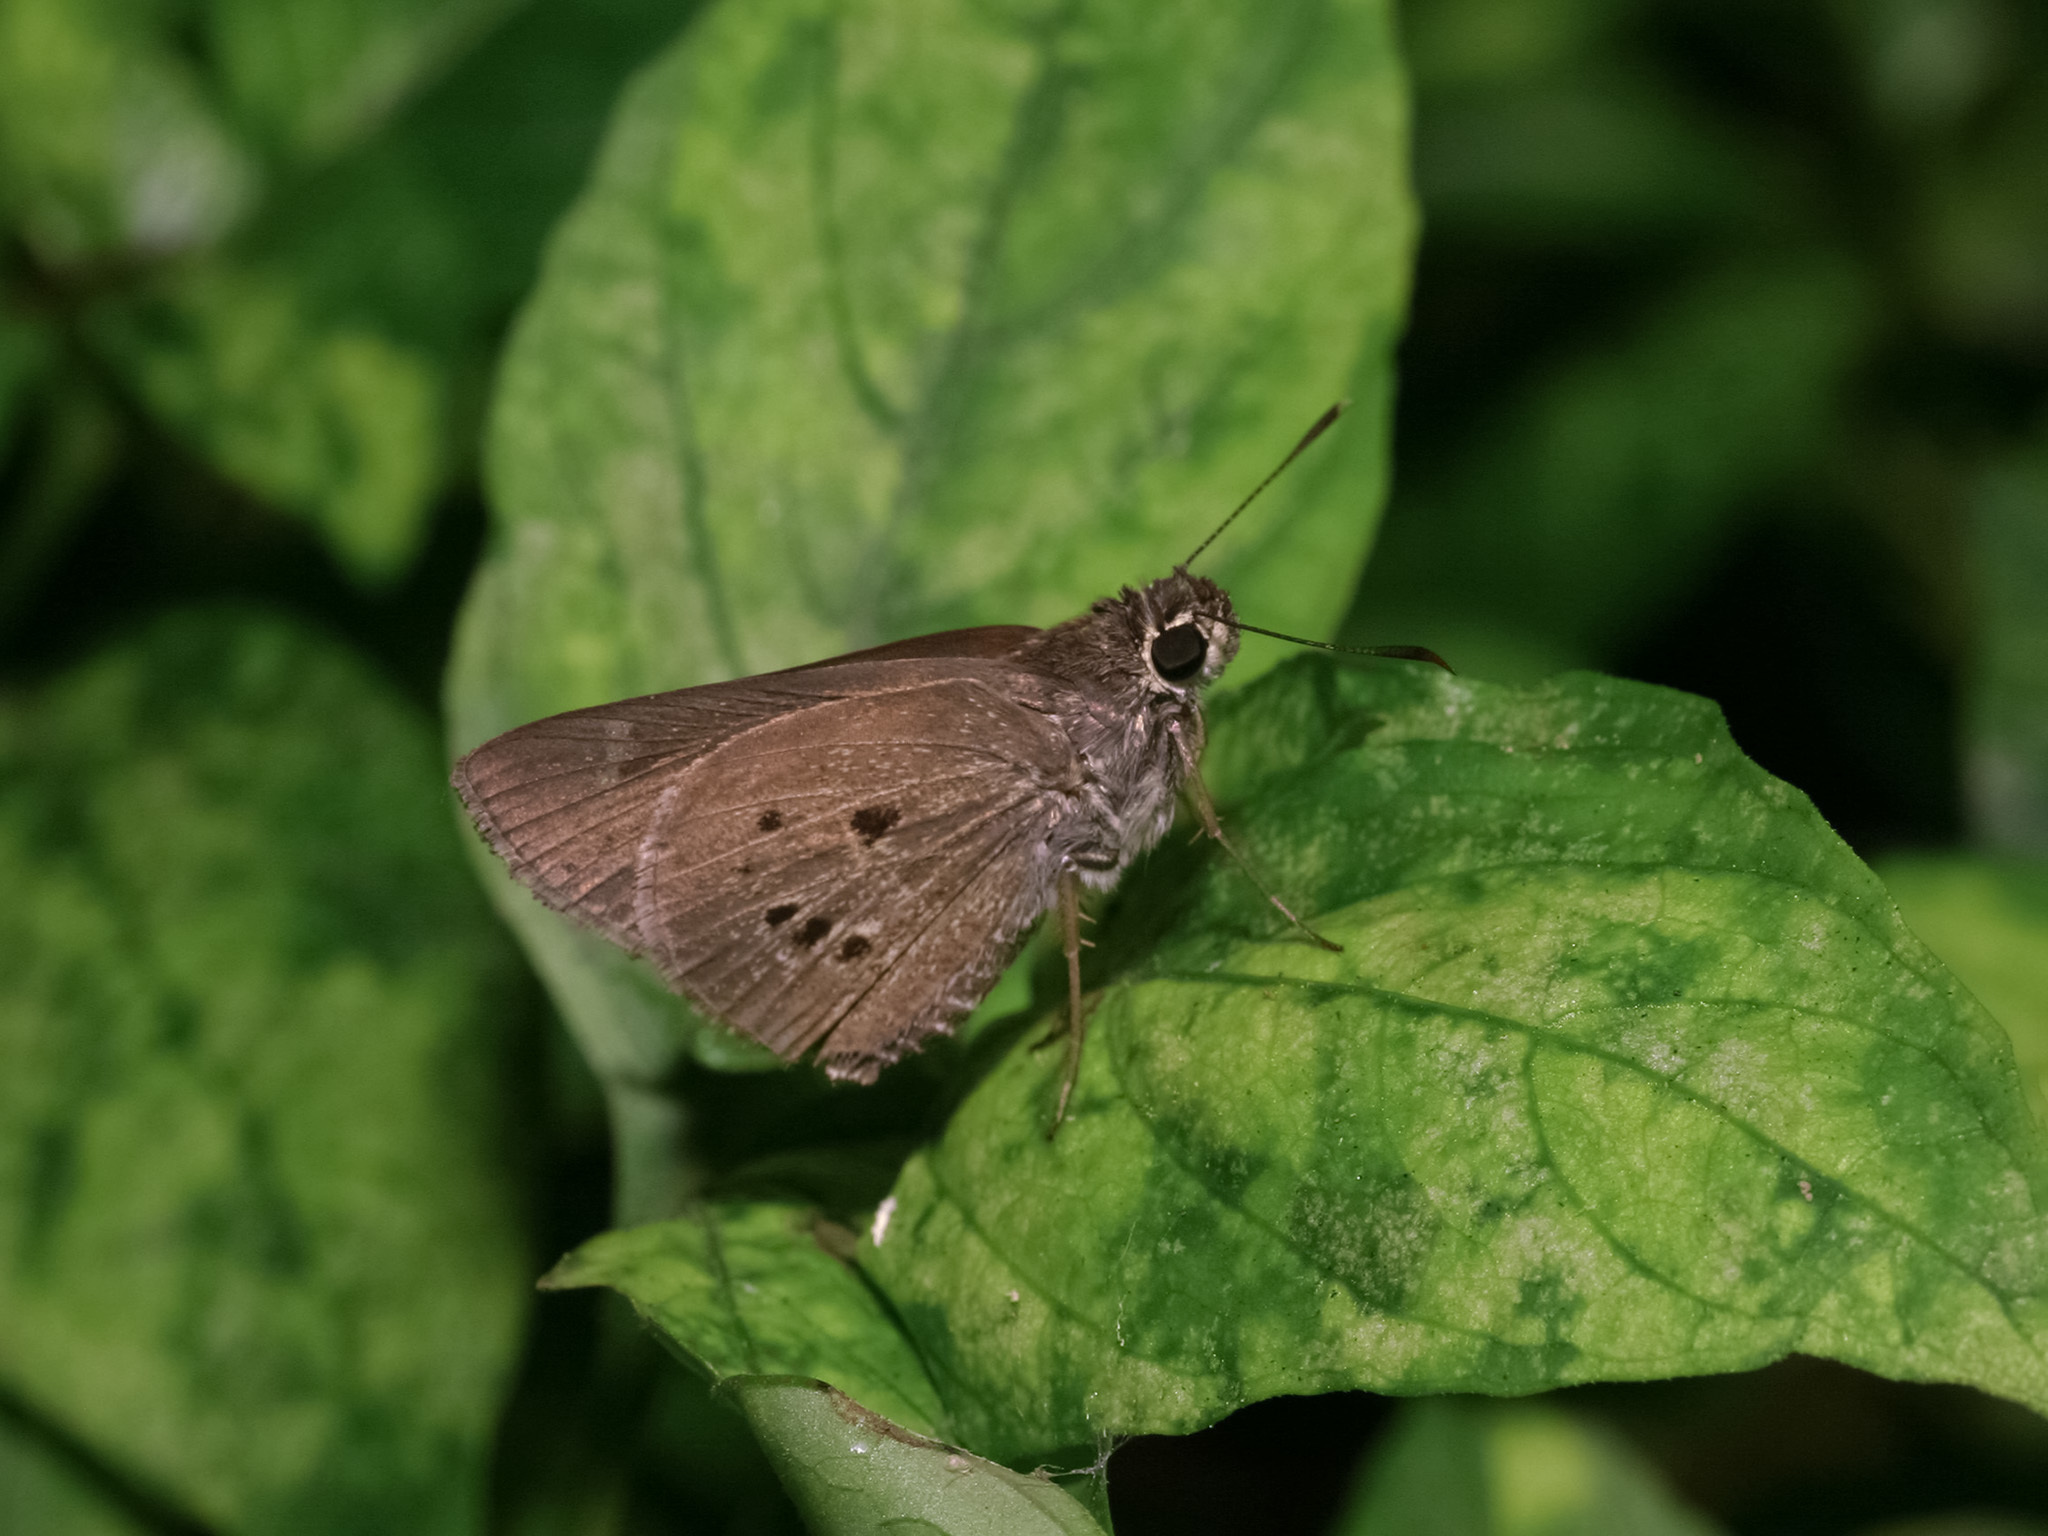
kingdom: Animalia
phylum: Arthropoda
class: Insecta
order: Lepidoptera
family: Hesperiidae
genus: Suastus
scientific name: Suastus gremius
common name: Indian palm bob
